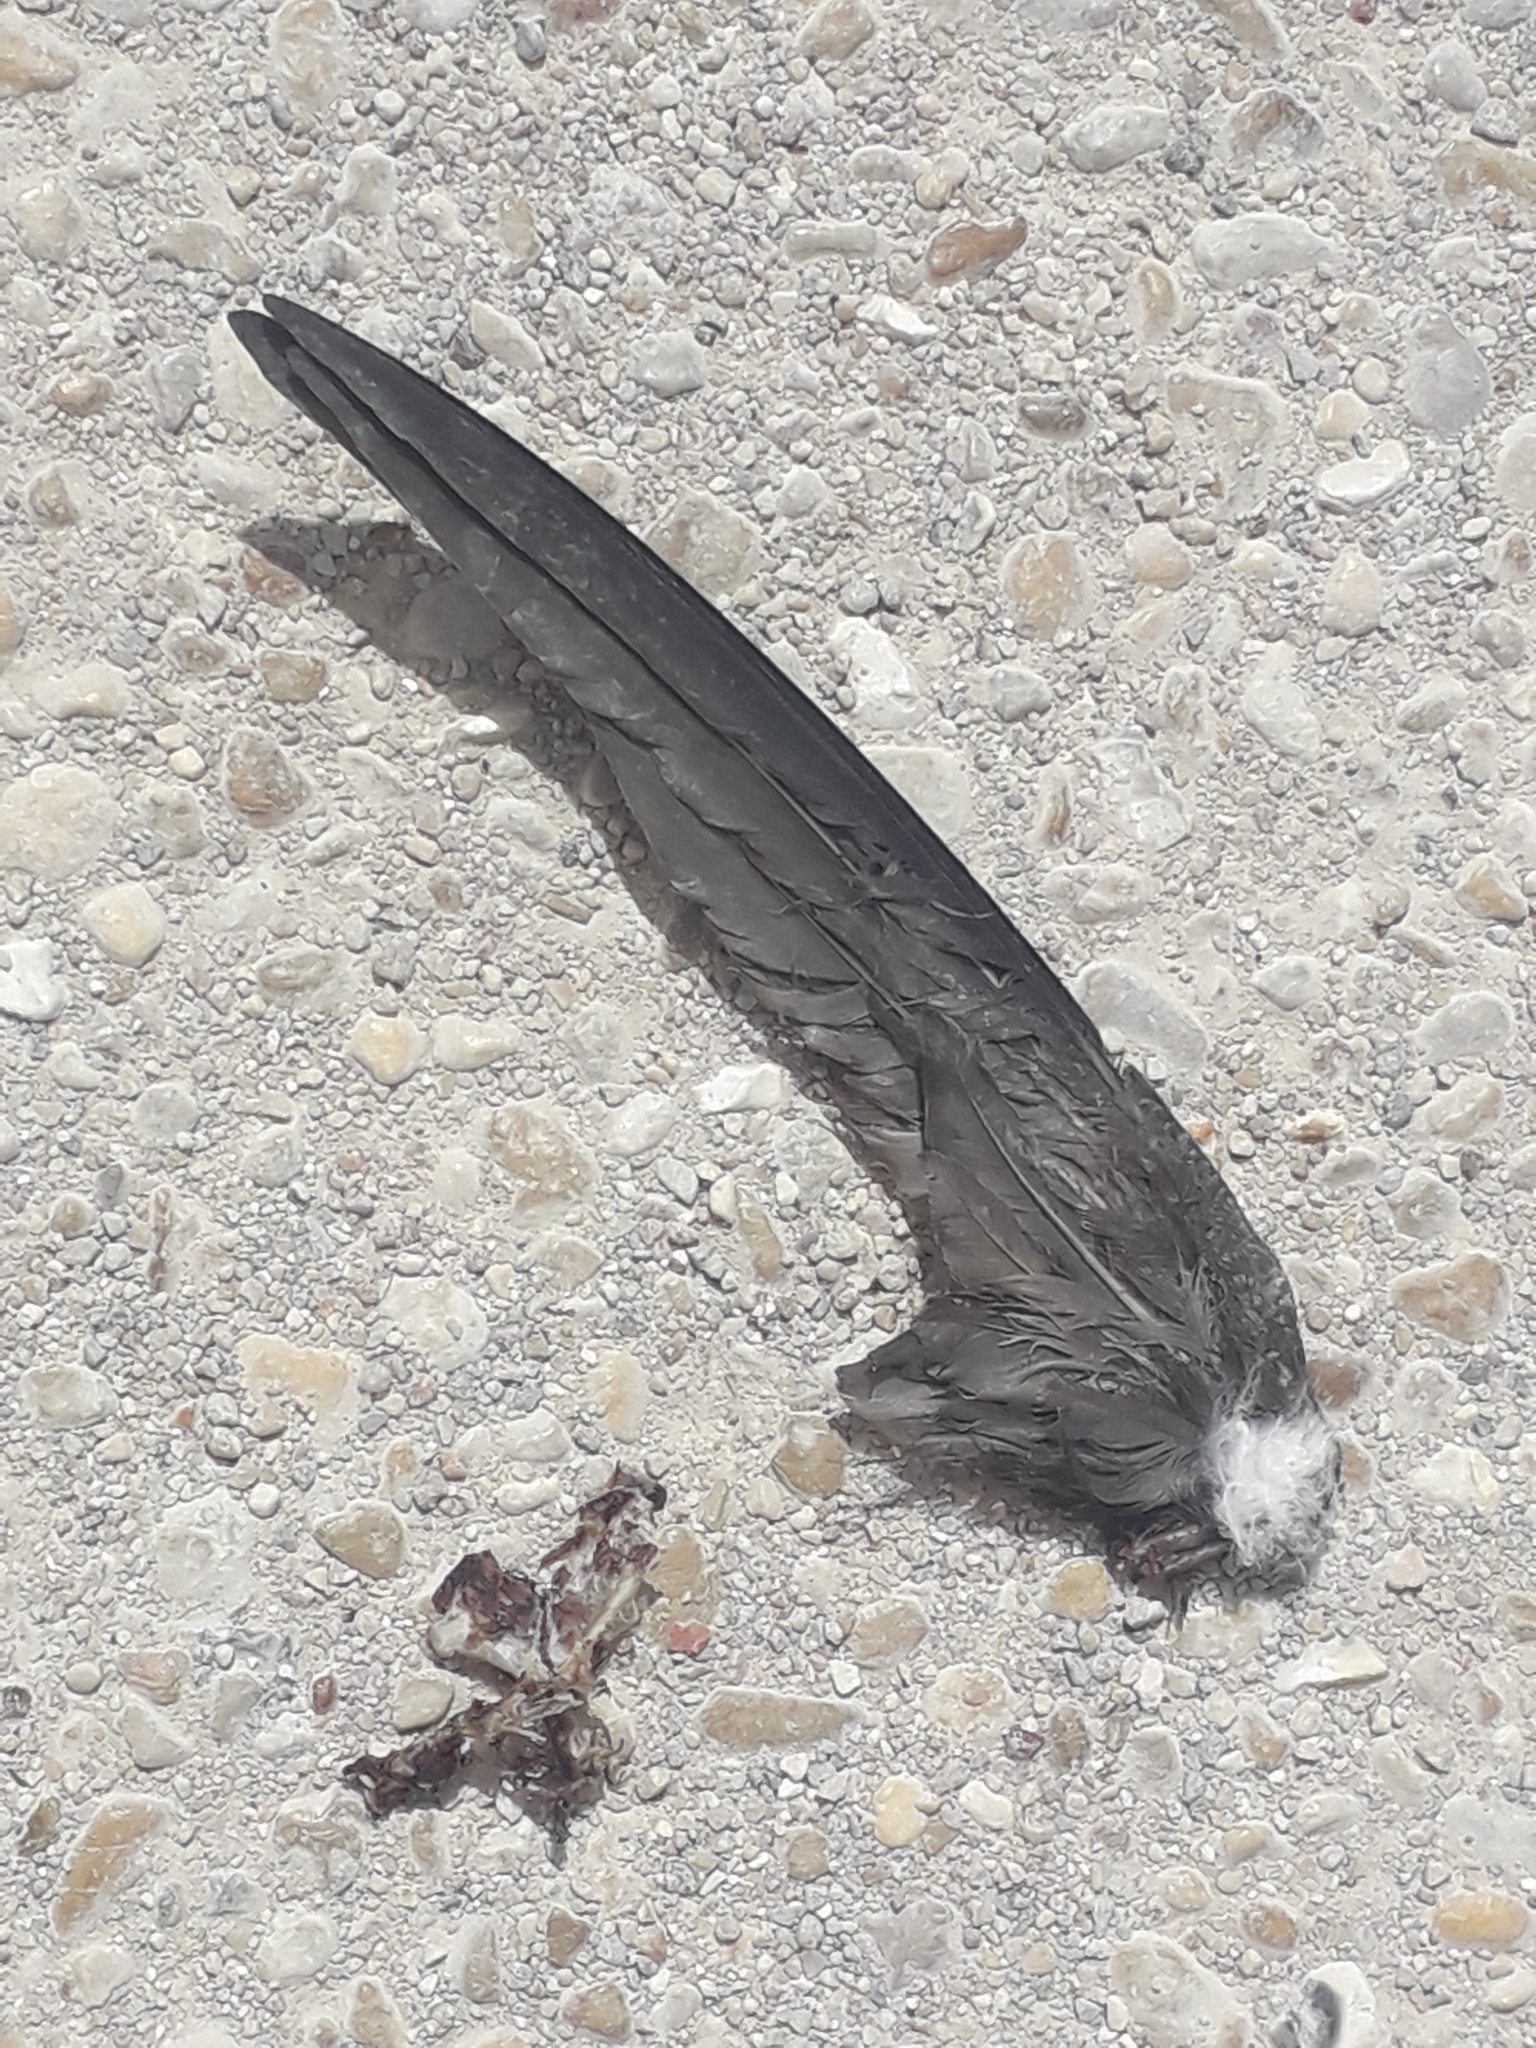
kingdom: Animalia
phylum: Chordata
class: Aves
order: Apodiformes
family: Apodidae
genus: Apus
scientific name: Apus apus
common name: Common swift
